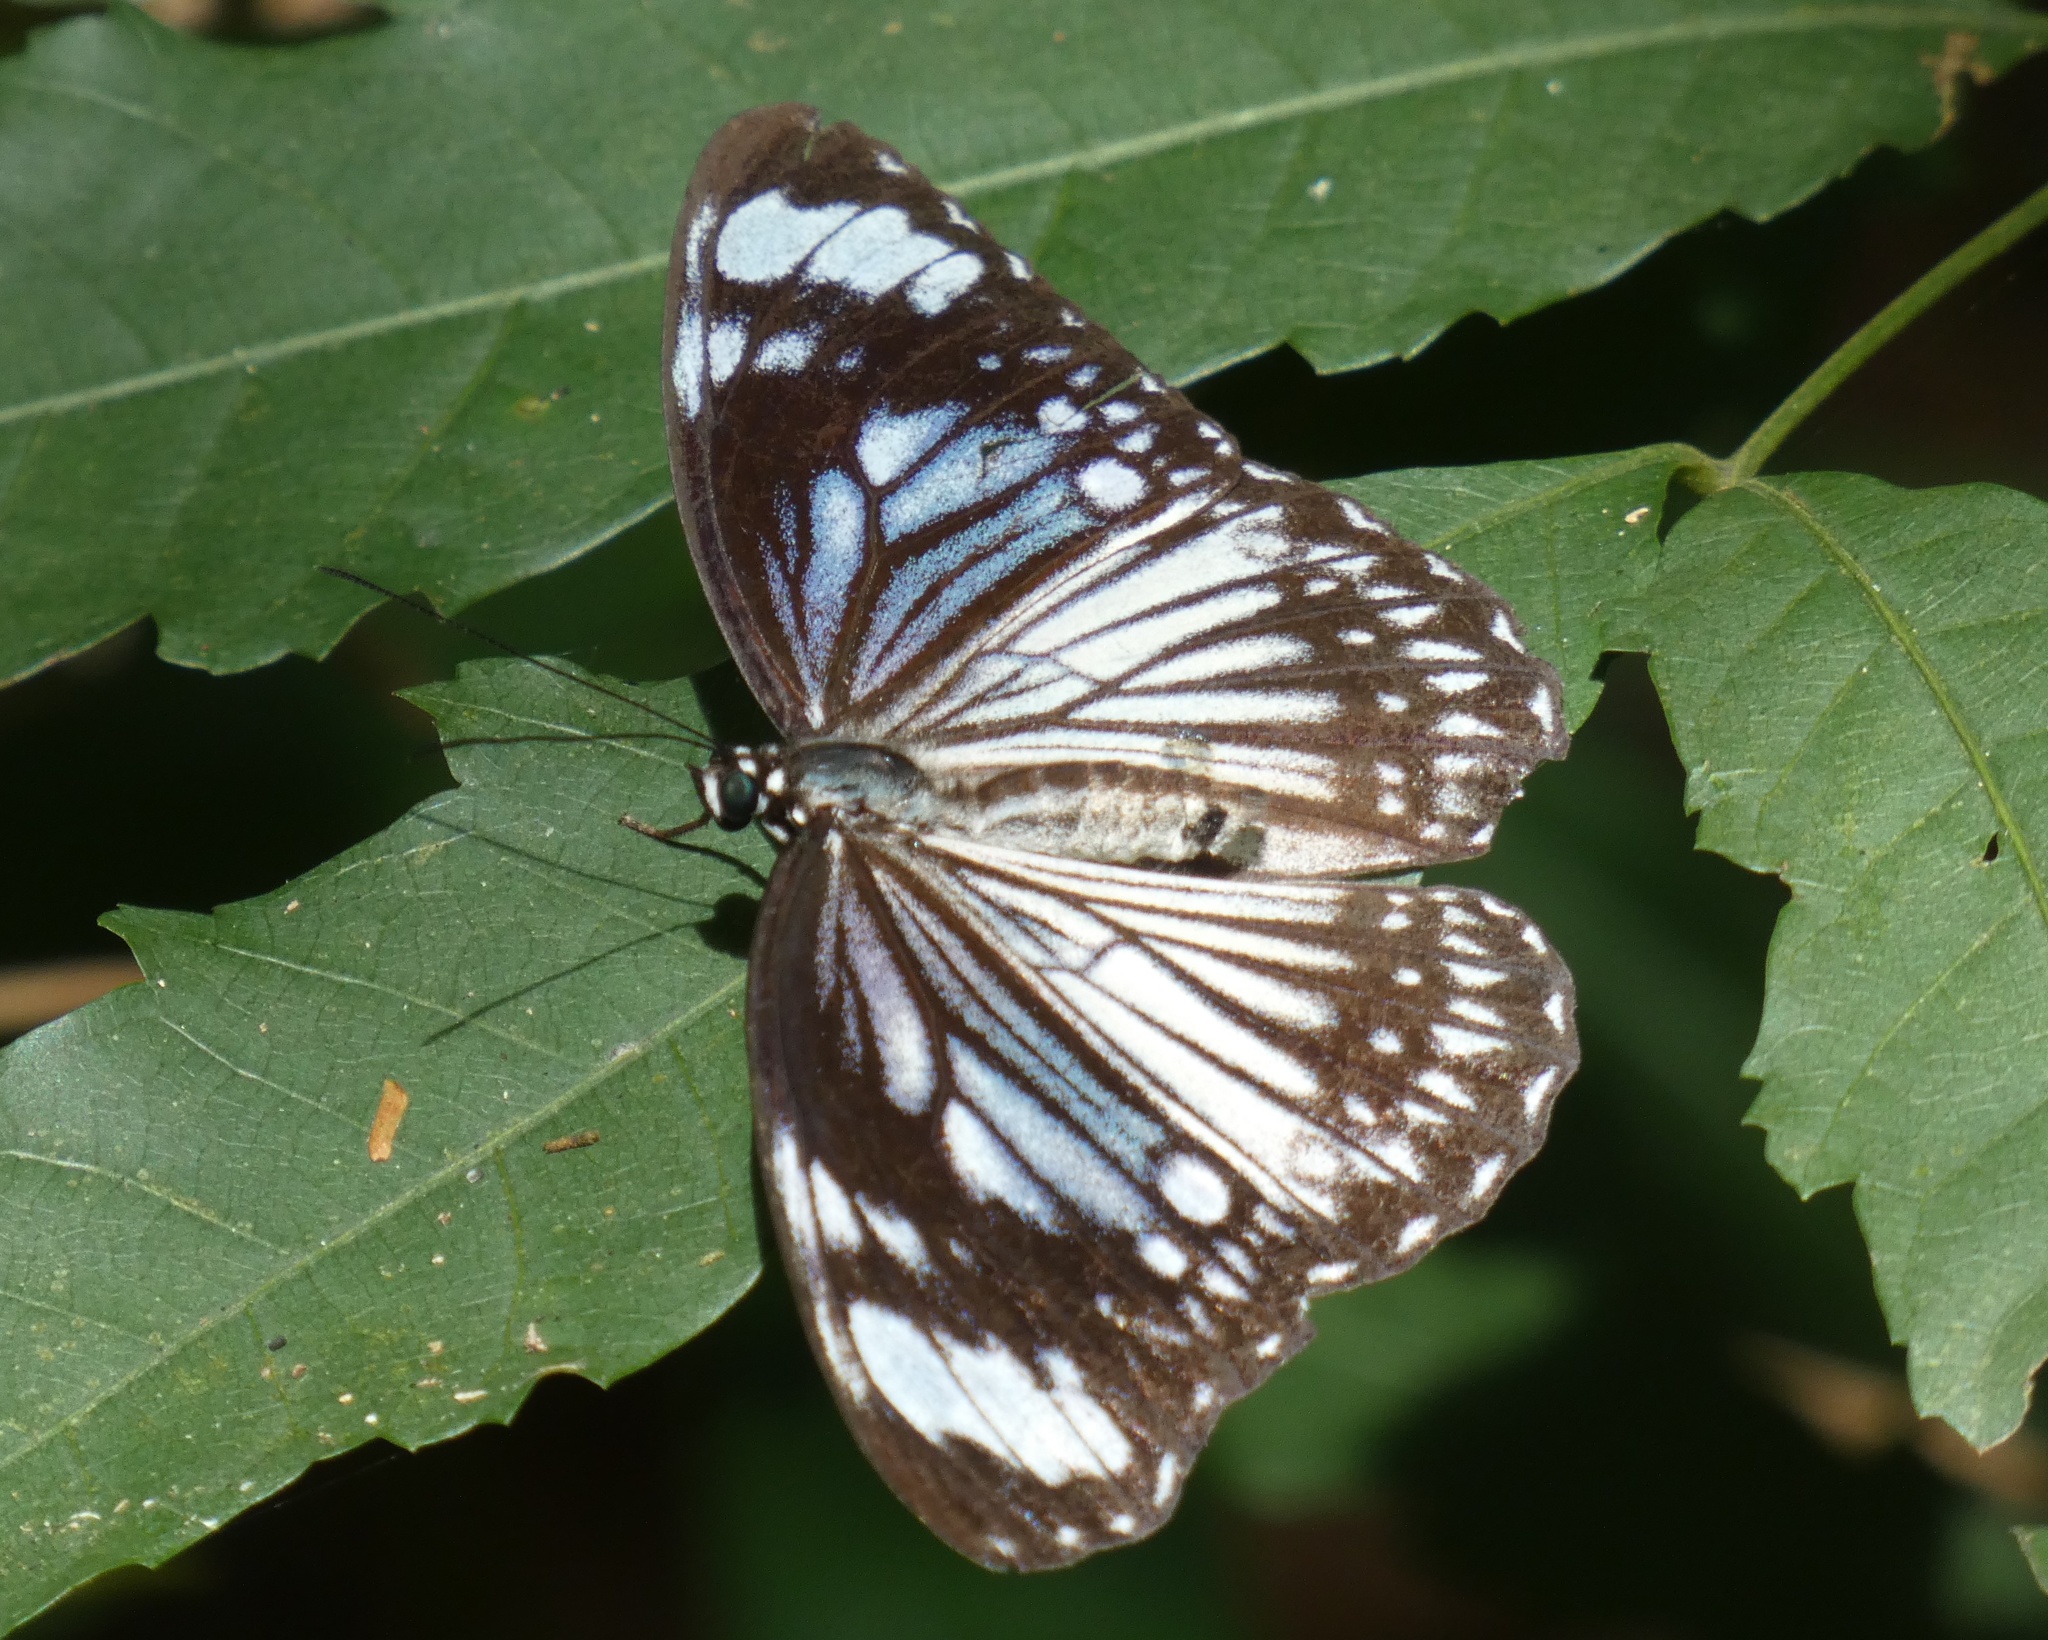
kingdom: Animalia
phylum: Arthropoda
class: Insecta
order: Lepidoptera
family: Nymphalidae
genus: Zethera
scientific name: Zethera pimplea
